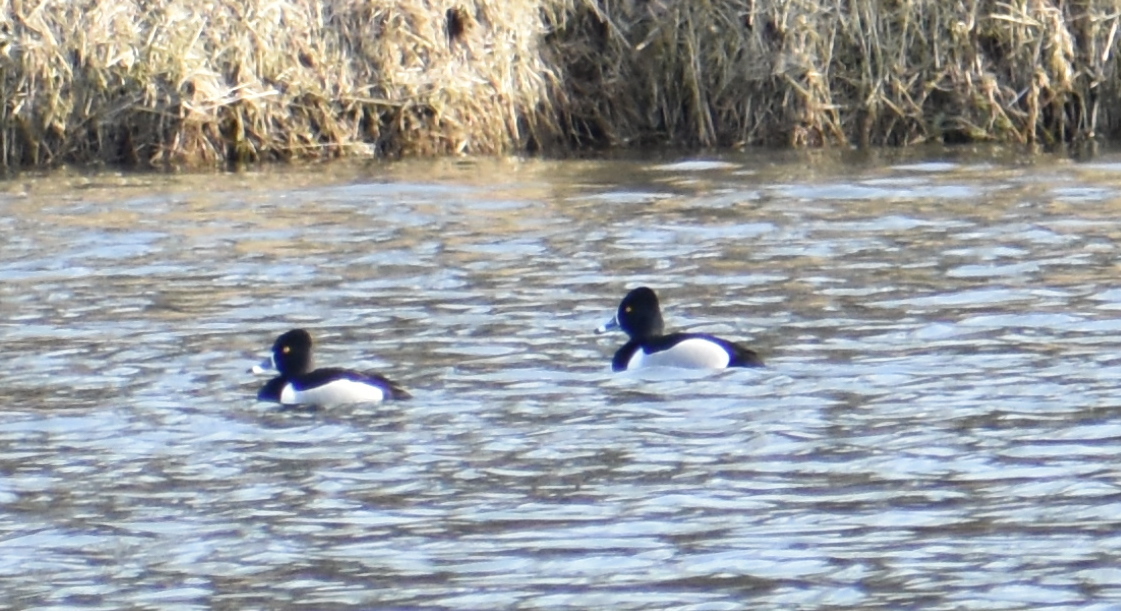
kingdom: Animalia
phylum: Chordata
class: Aves
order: Anseriformes
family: Anatidae
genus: Aythya
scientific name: Aythya collaris
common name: Ring-necked duck
